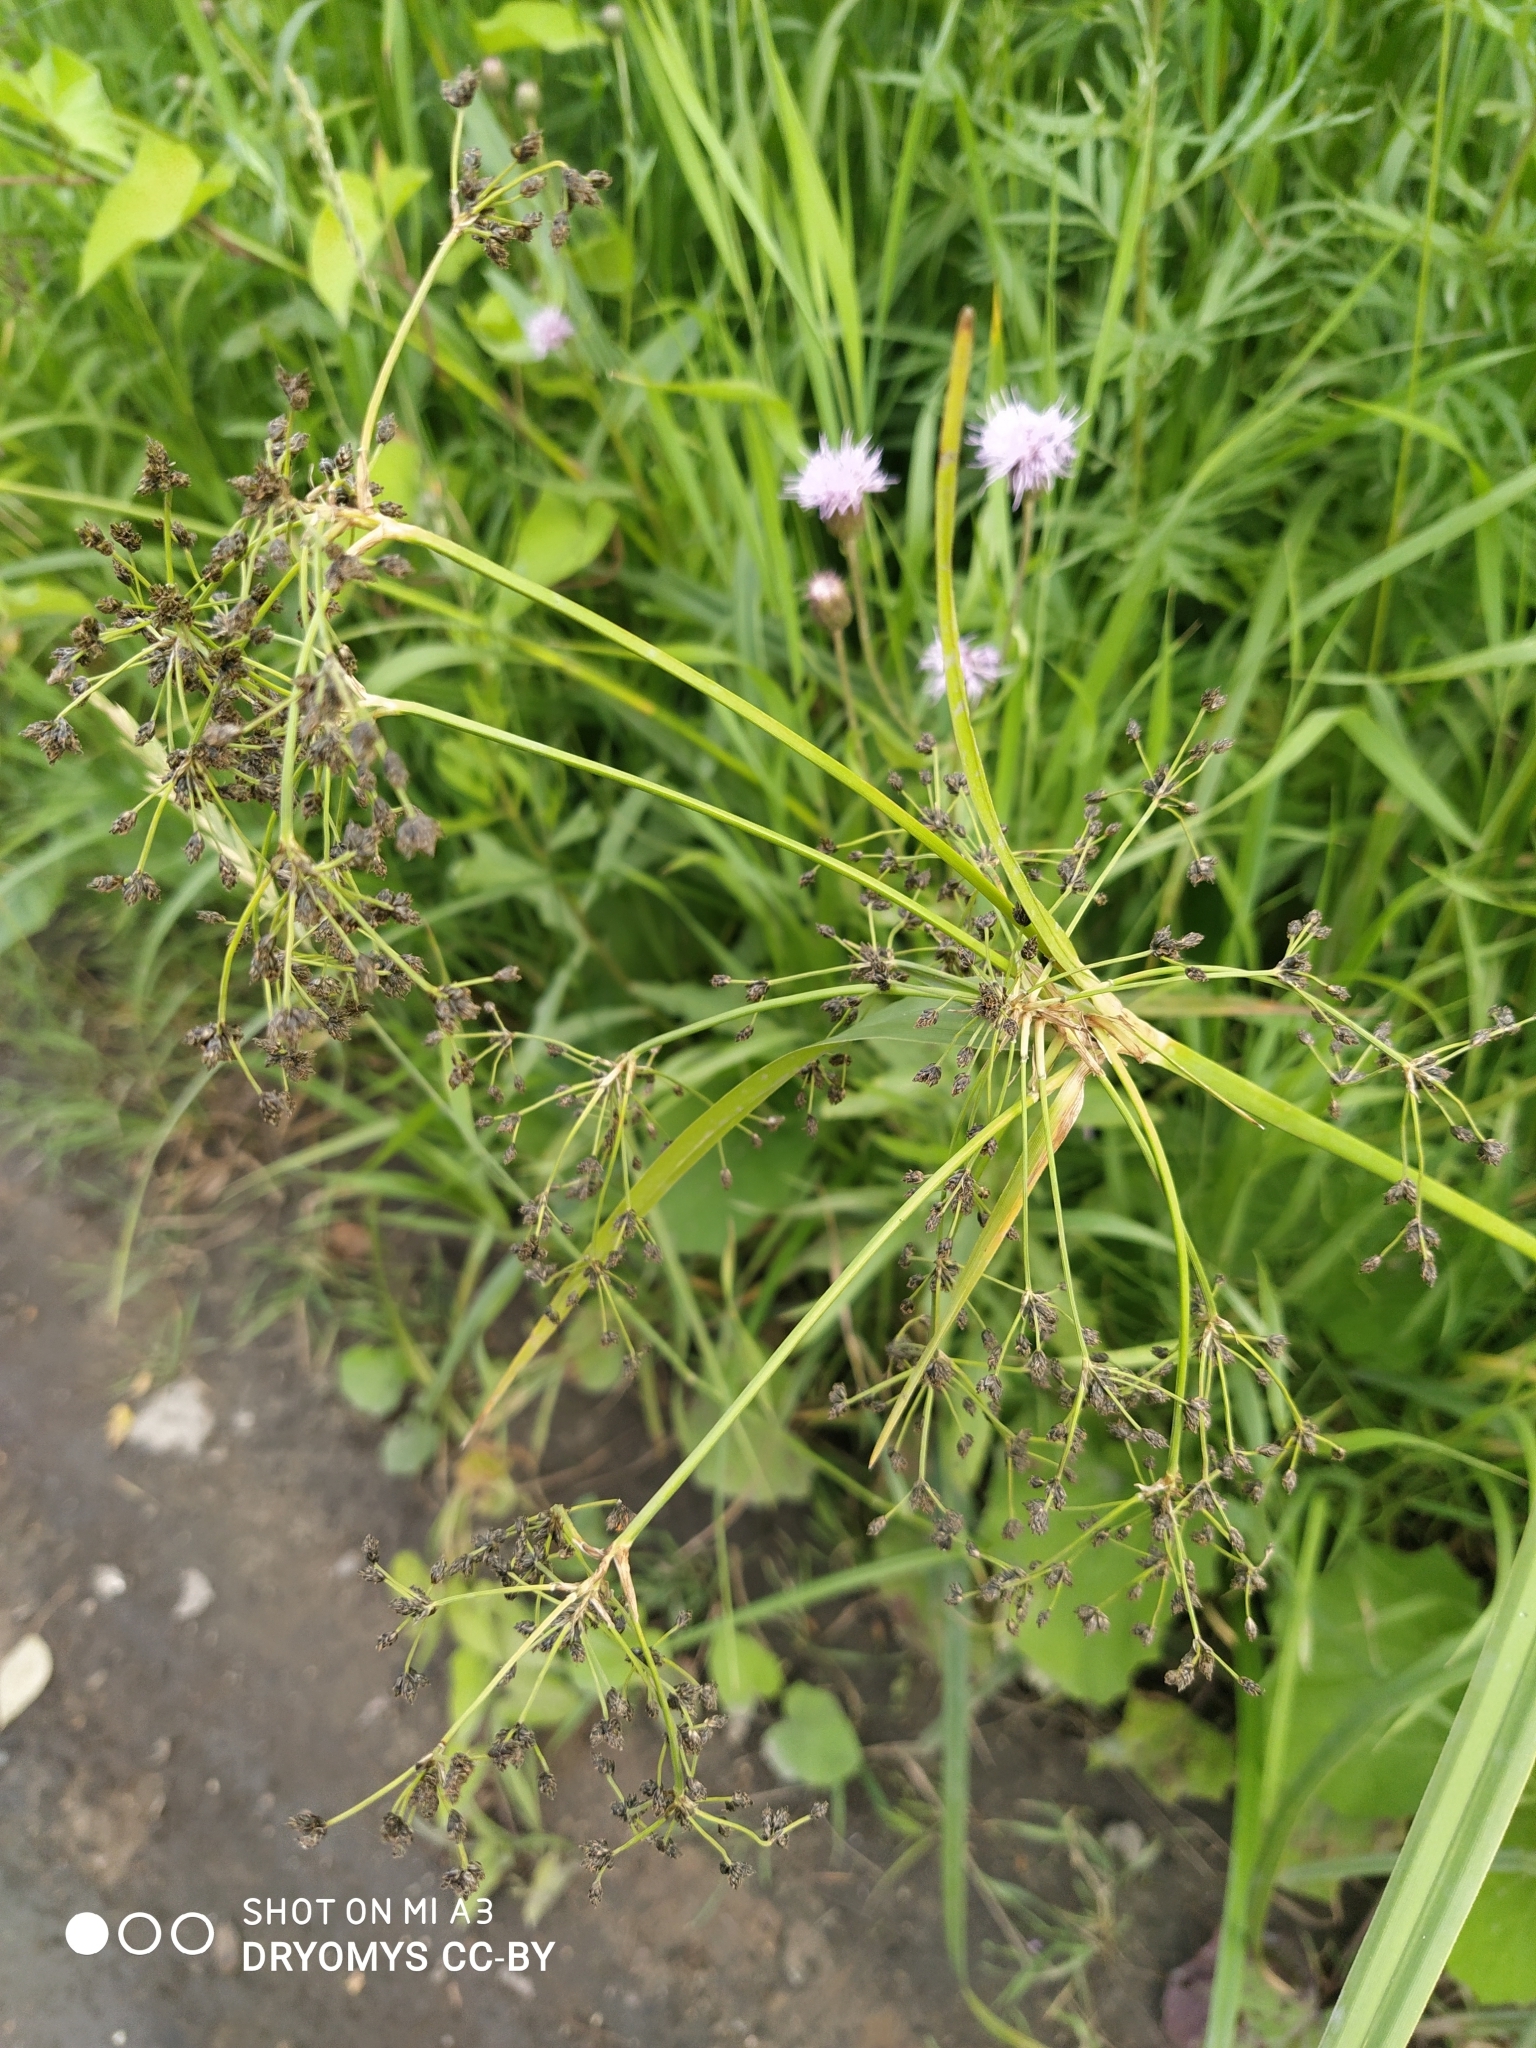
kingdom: Plantae
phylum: Tracheophyta
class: Liliopsida
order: Poales
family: Cyperaceae
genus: Scirpus
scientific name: Scirpus sylvaticus
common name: Wood club-rush
